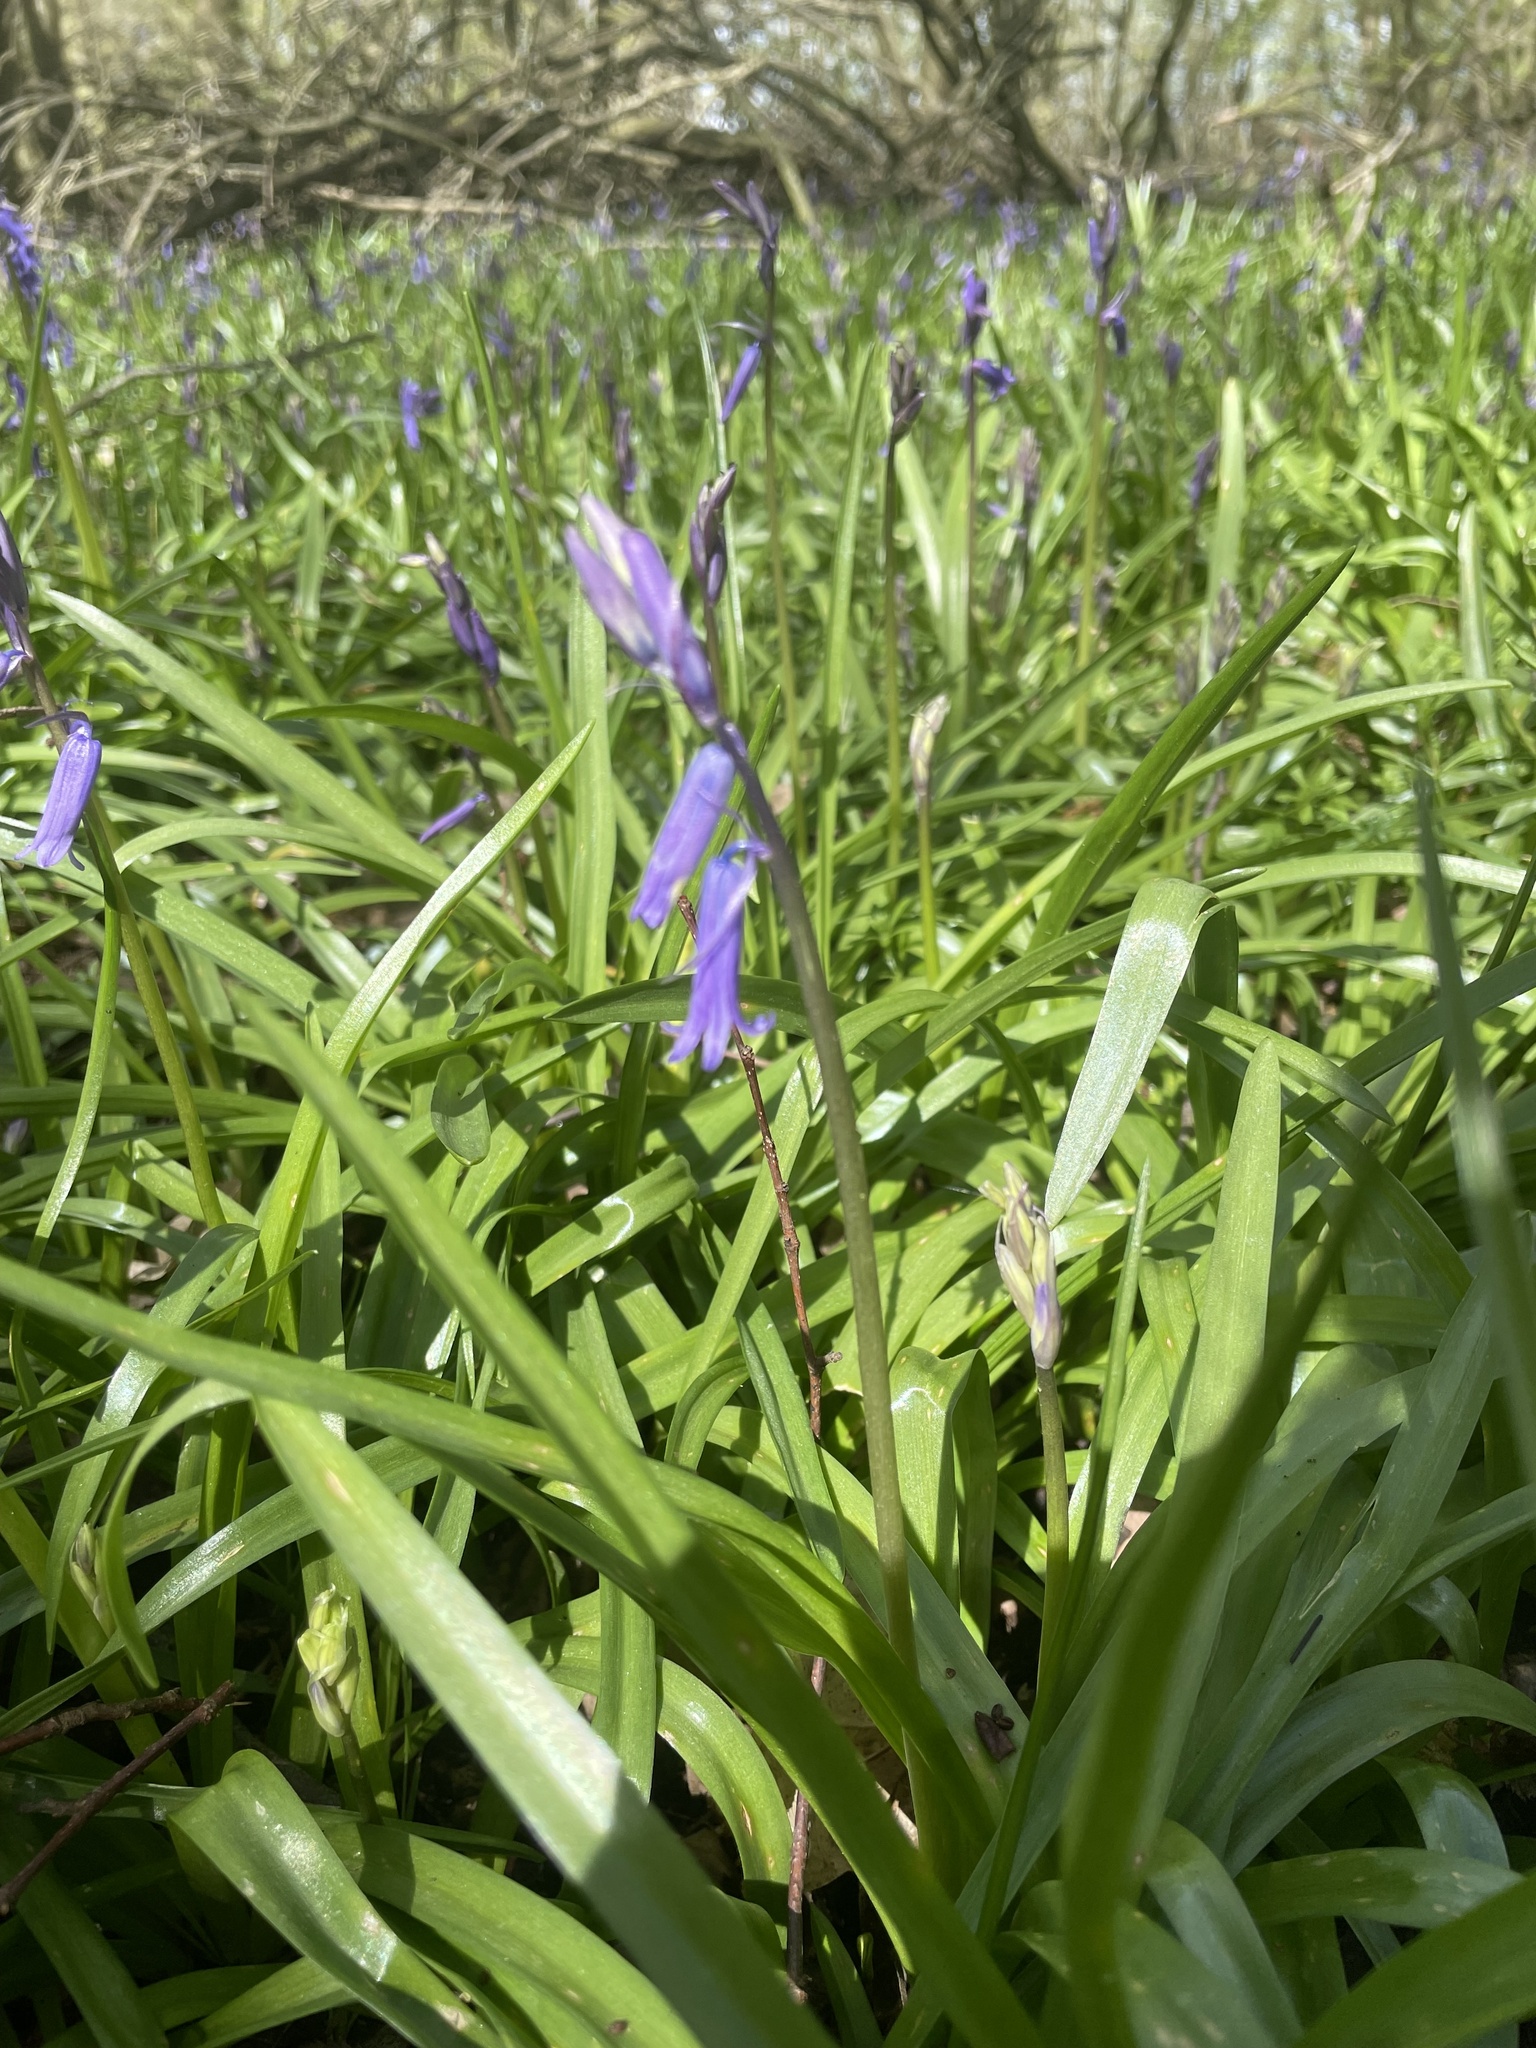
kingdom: Plantae
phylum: Tracheophyta
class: Liliopsida
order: Asparagales
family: Asparagaceae
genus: Hyacinthoides
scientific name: Hyacinthoides non-scripta
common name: Bluebell
